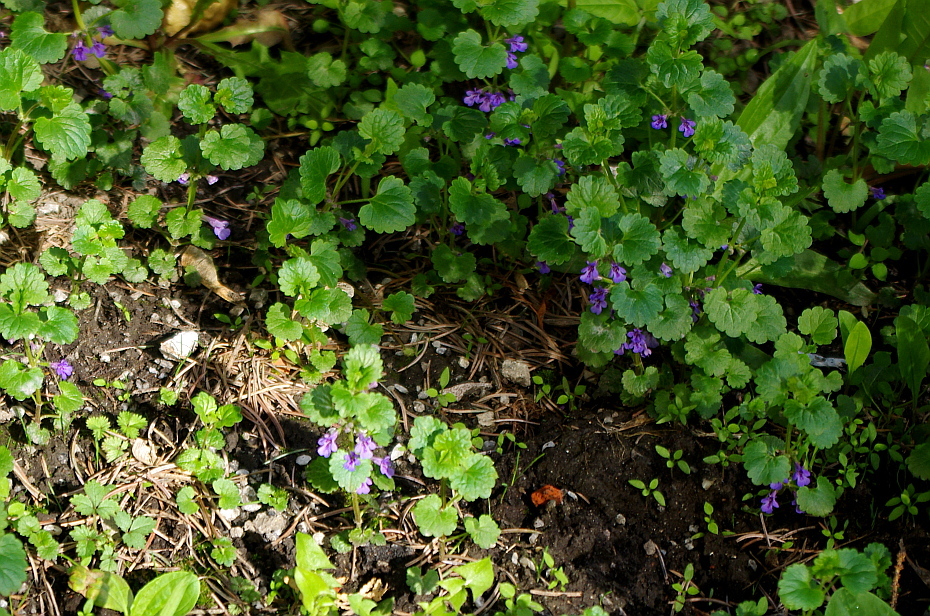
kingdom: Plantae
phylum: Tracheophyta
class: Magnoliopsida
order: Lamiales
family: Lamiaceae
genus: Glechoma
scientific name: Glechoma hederacea
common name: Ground ivy
